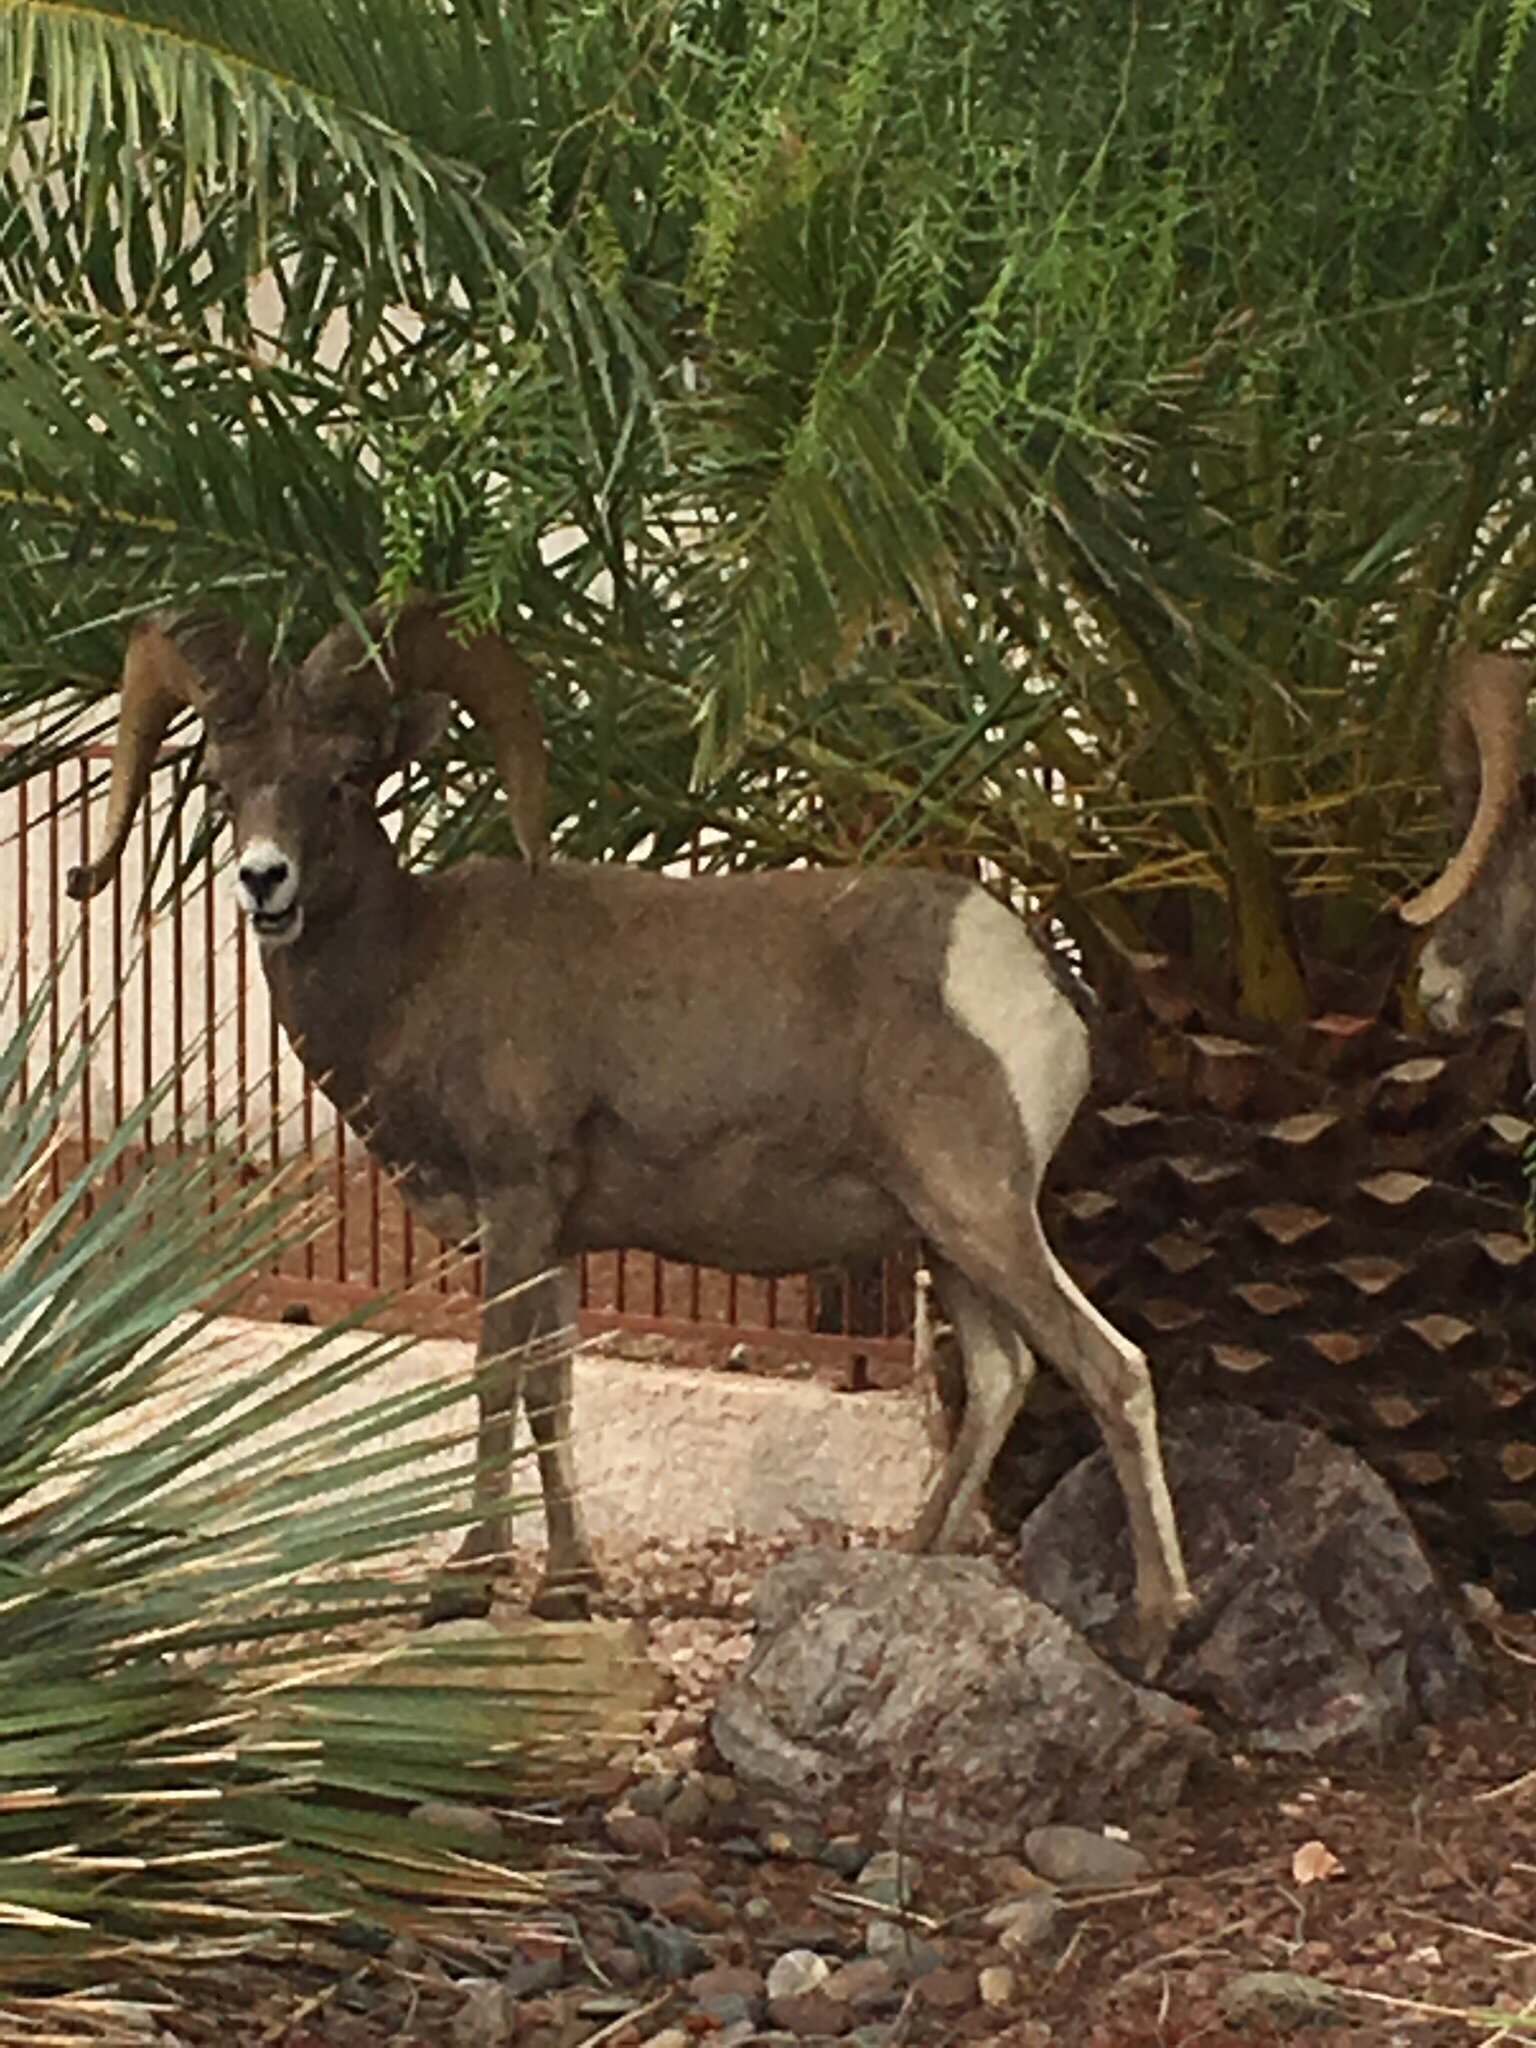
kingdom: Animalia
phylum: Chordata
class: Mammalia
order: Artiodactyla
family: Bovidae
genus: Ovis
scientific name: Ovis canadensis
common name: Bighorn sheep
